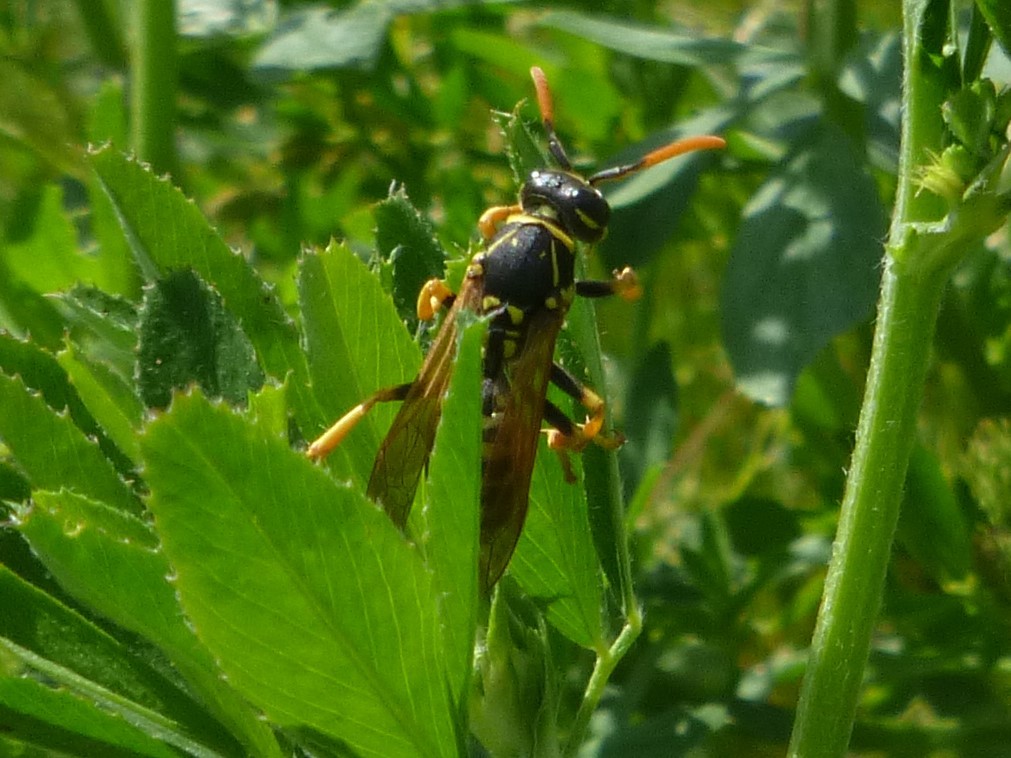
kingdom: Animalia
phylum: Arthropoda
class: Insecta
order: Hymenoptera
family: Eumenidae
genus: Polistes
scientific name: Polistes dominula
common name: Paper wasp
